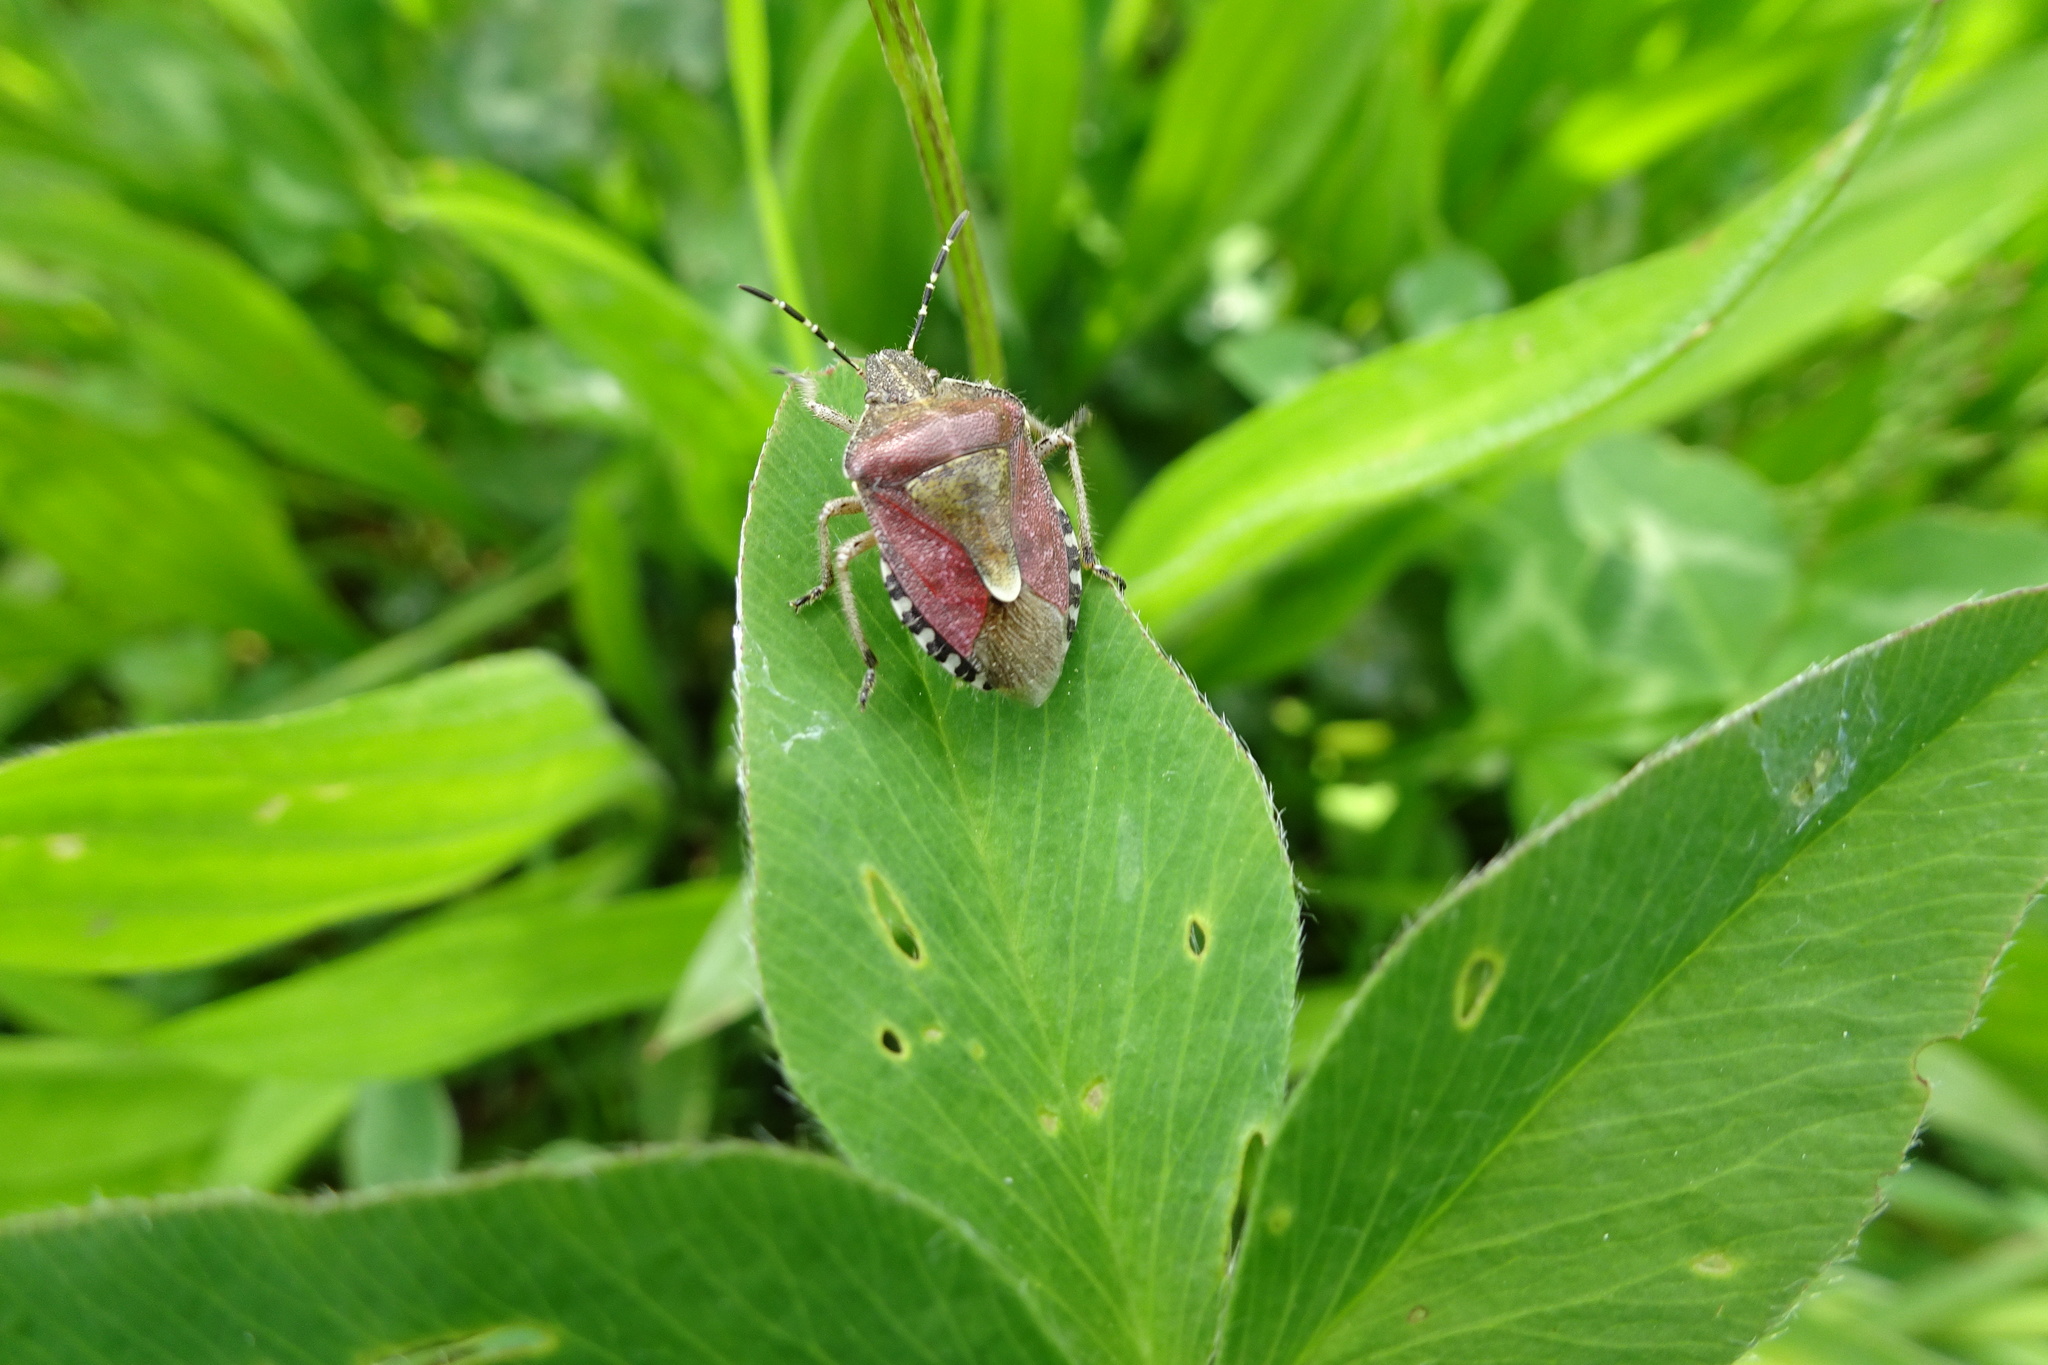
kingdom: Animalia
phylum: Arthropoda
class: Insecta
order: Hemiptera
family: Pentatomidae
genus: Dolycoris
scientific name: Dolycoris baccarum
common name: Sloe bug
